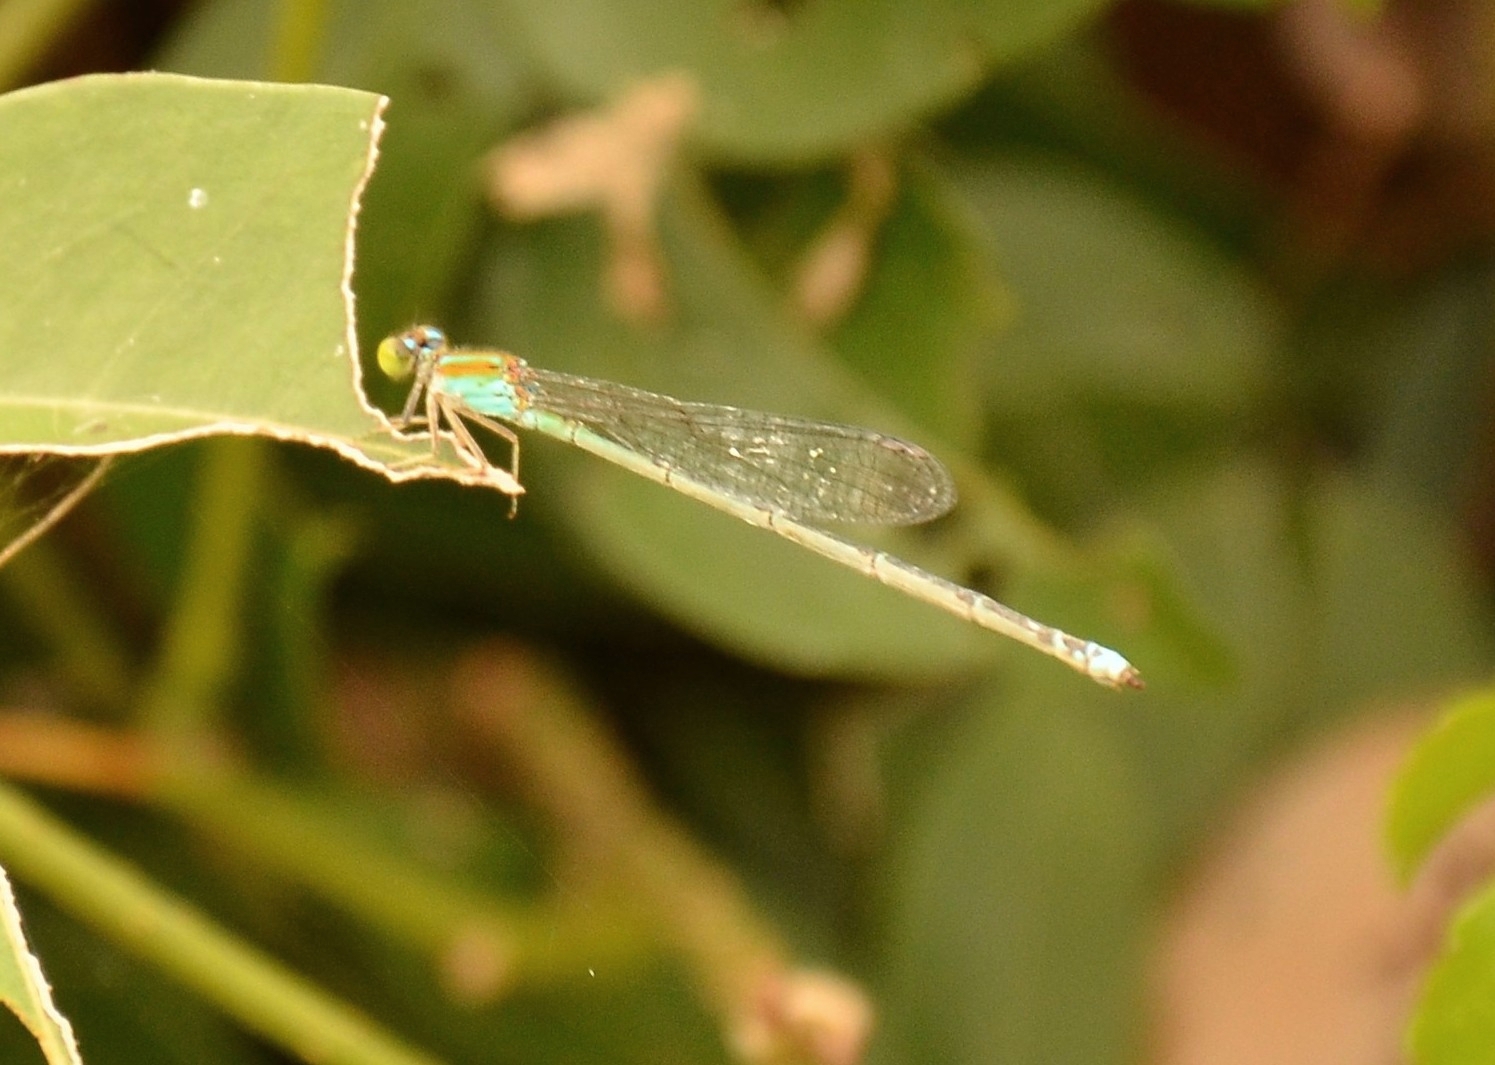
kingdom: Animalia
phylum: Arthropoda
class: Insecta
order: Odonata
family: Coenagrionidae
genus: Pseudagrion
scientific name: Pseudagrion microcephalum
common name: Blue riverdamsel
